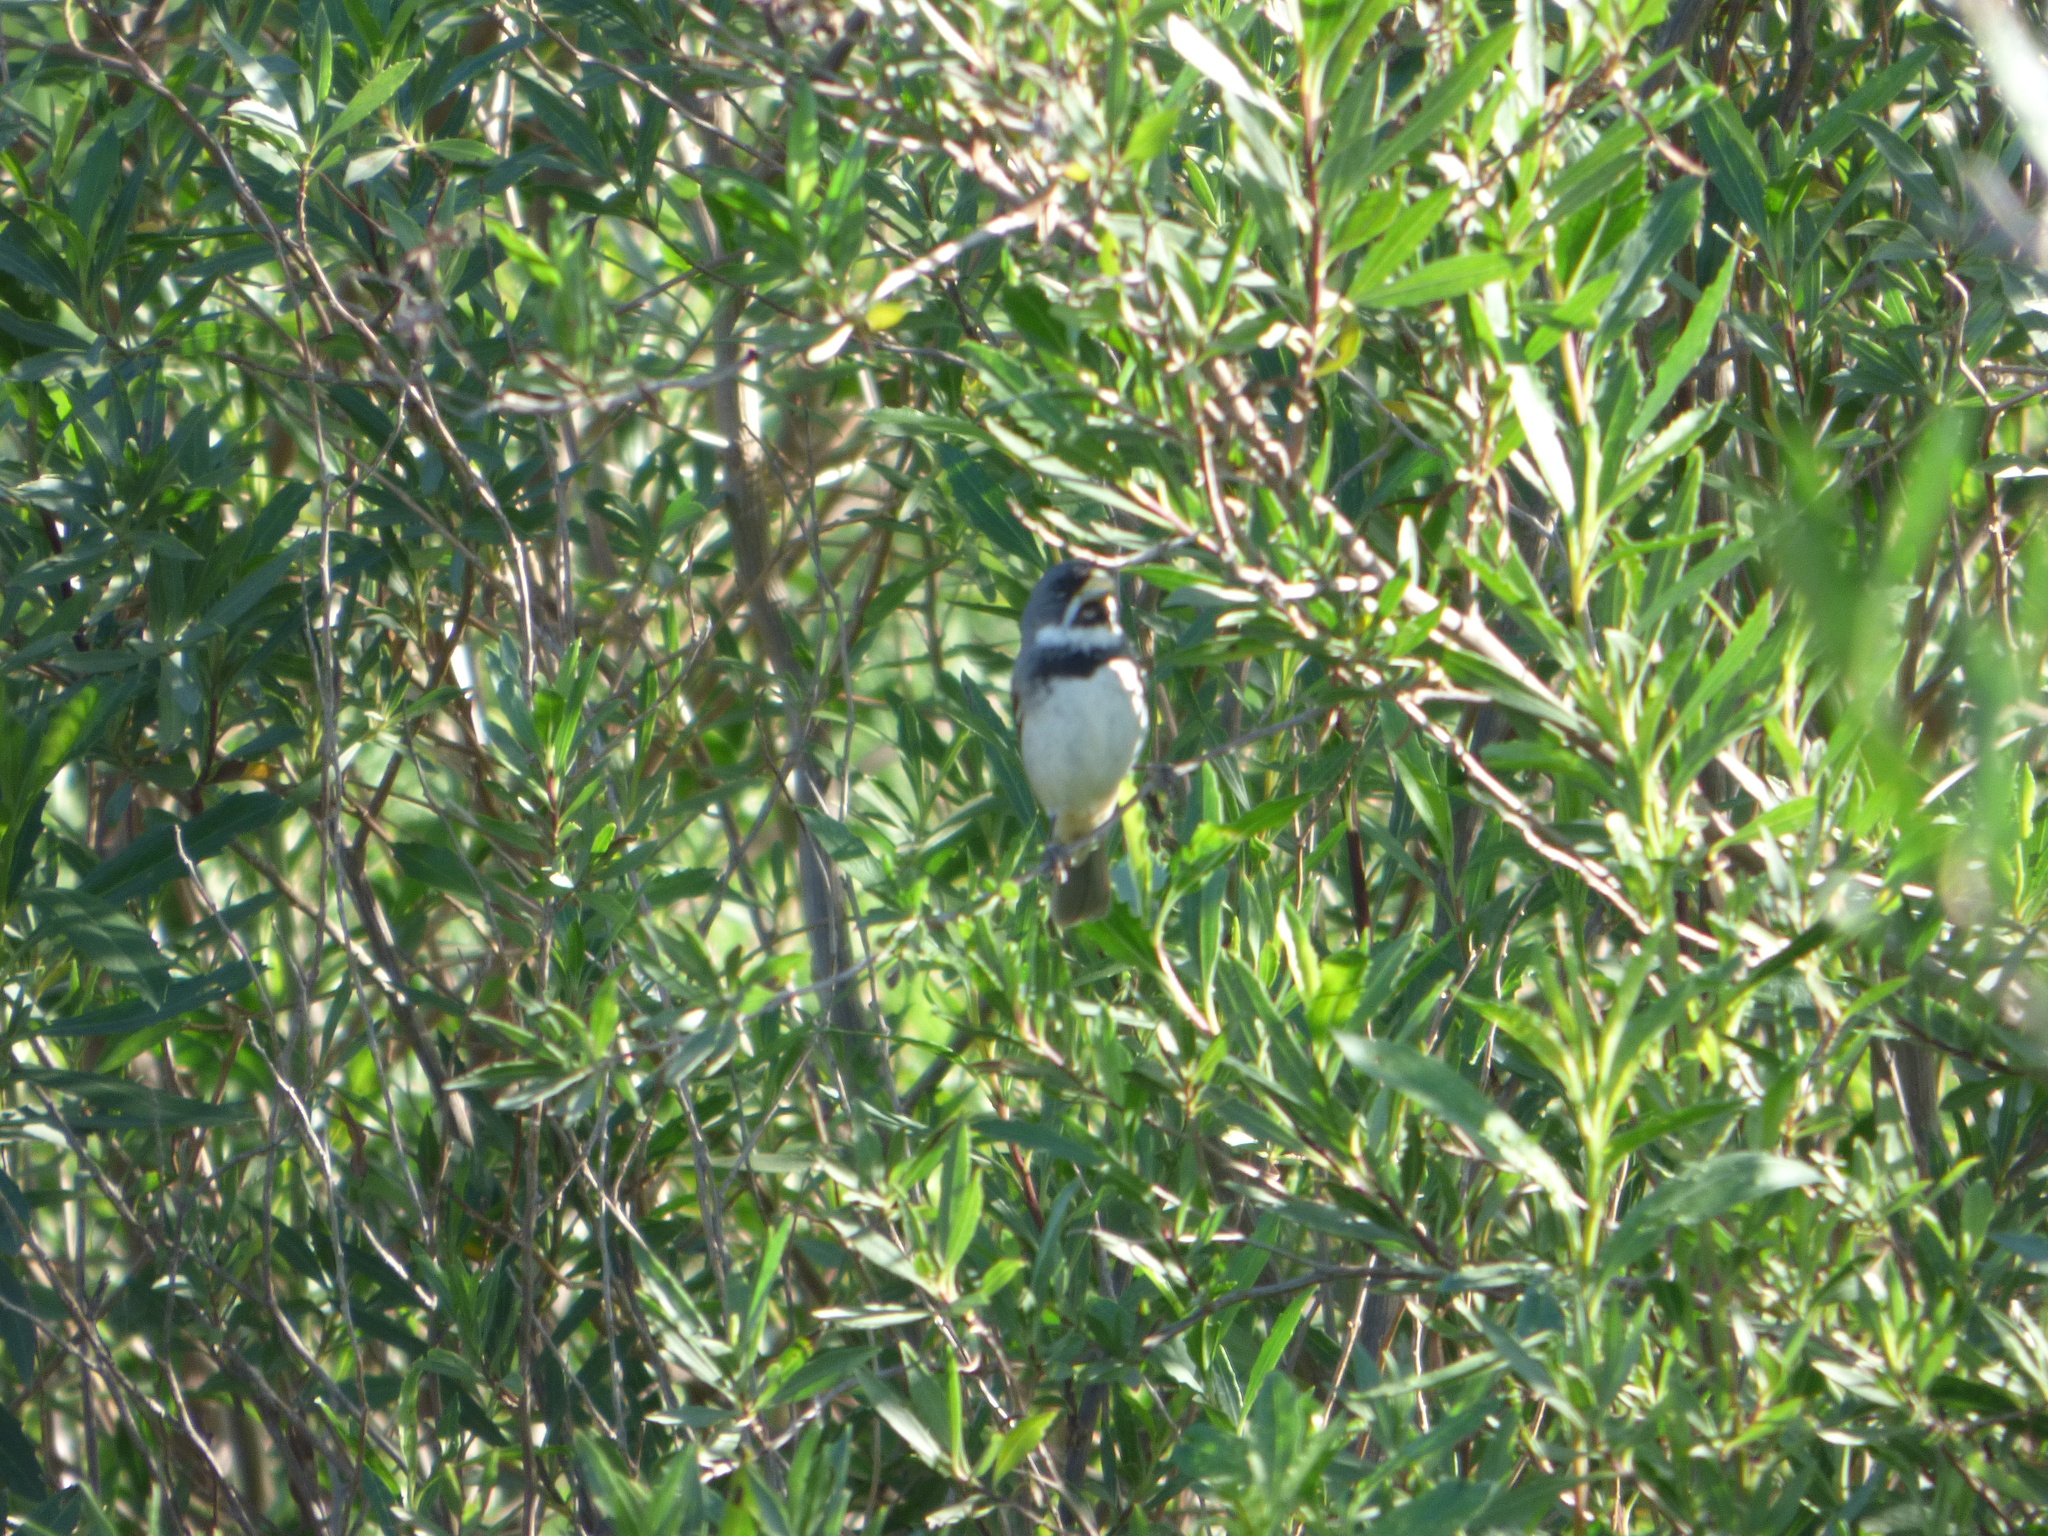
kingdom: Animalia
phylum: Chordata
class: Aves
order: Passeriformes
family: Thraupidae
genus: Sporophila
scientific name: Sporophila caerulescens
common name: Double-collared seedeater
